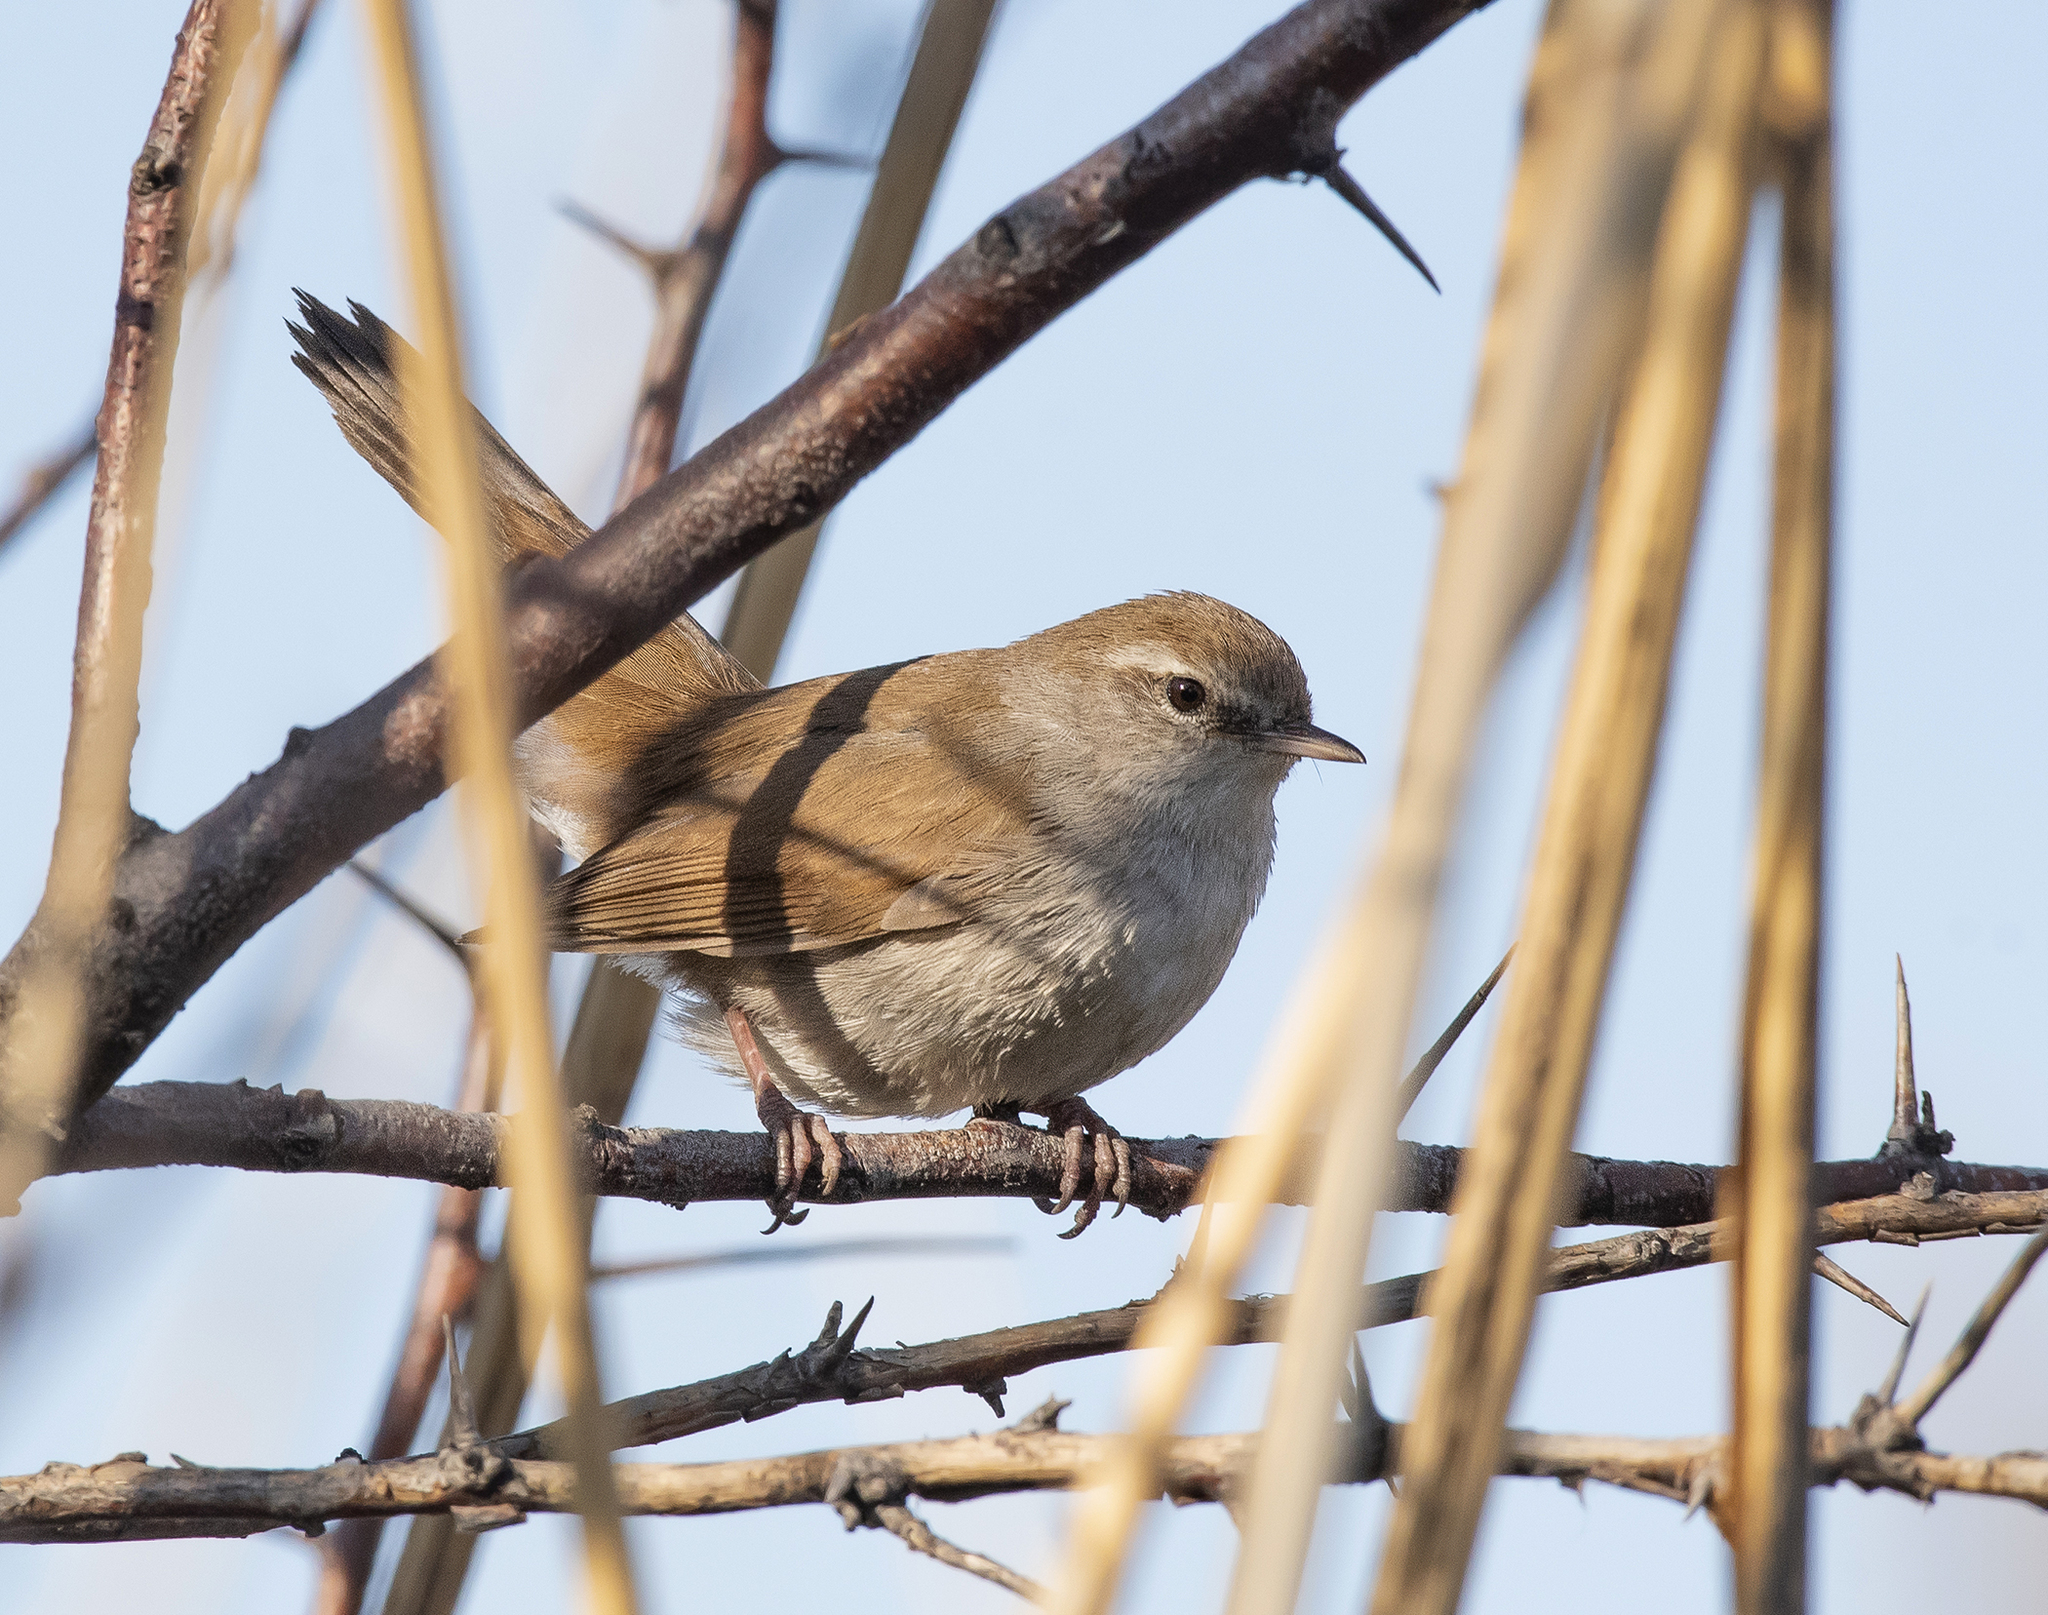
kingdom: Animalia
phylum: Chordata
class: Aves
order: Passeriformes
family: Cettiidae
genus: Cettia
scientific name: Cettia cetti
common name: Cetti's warbler
